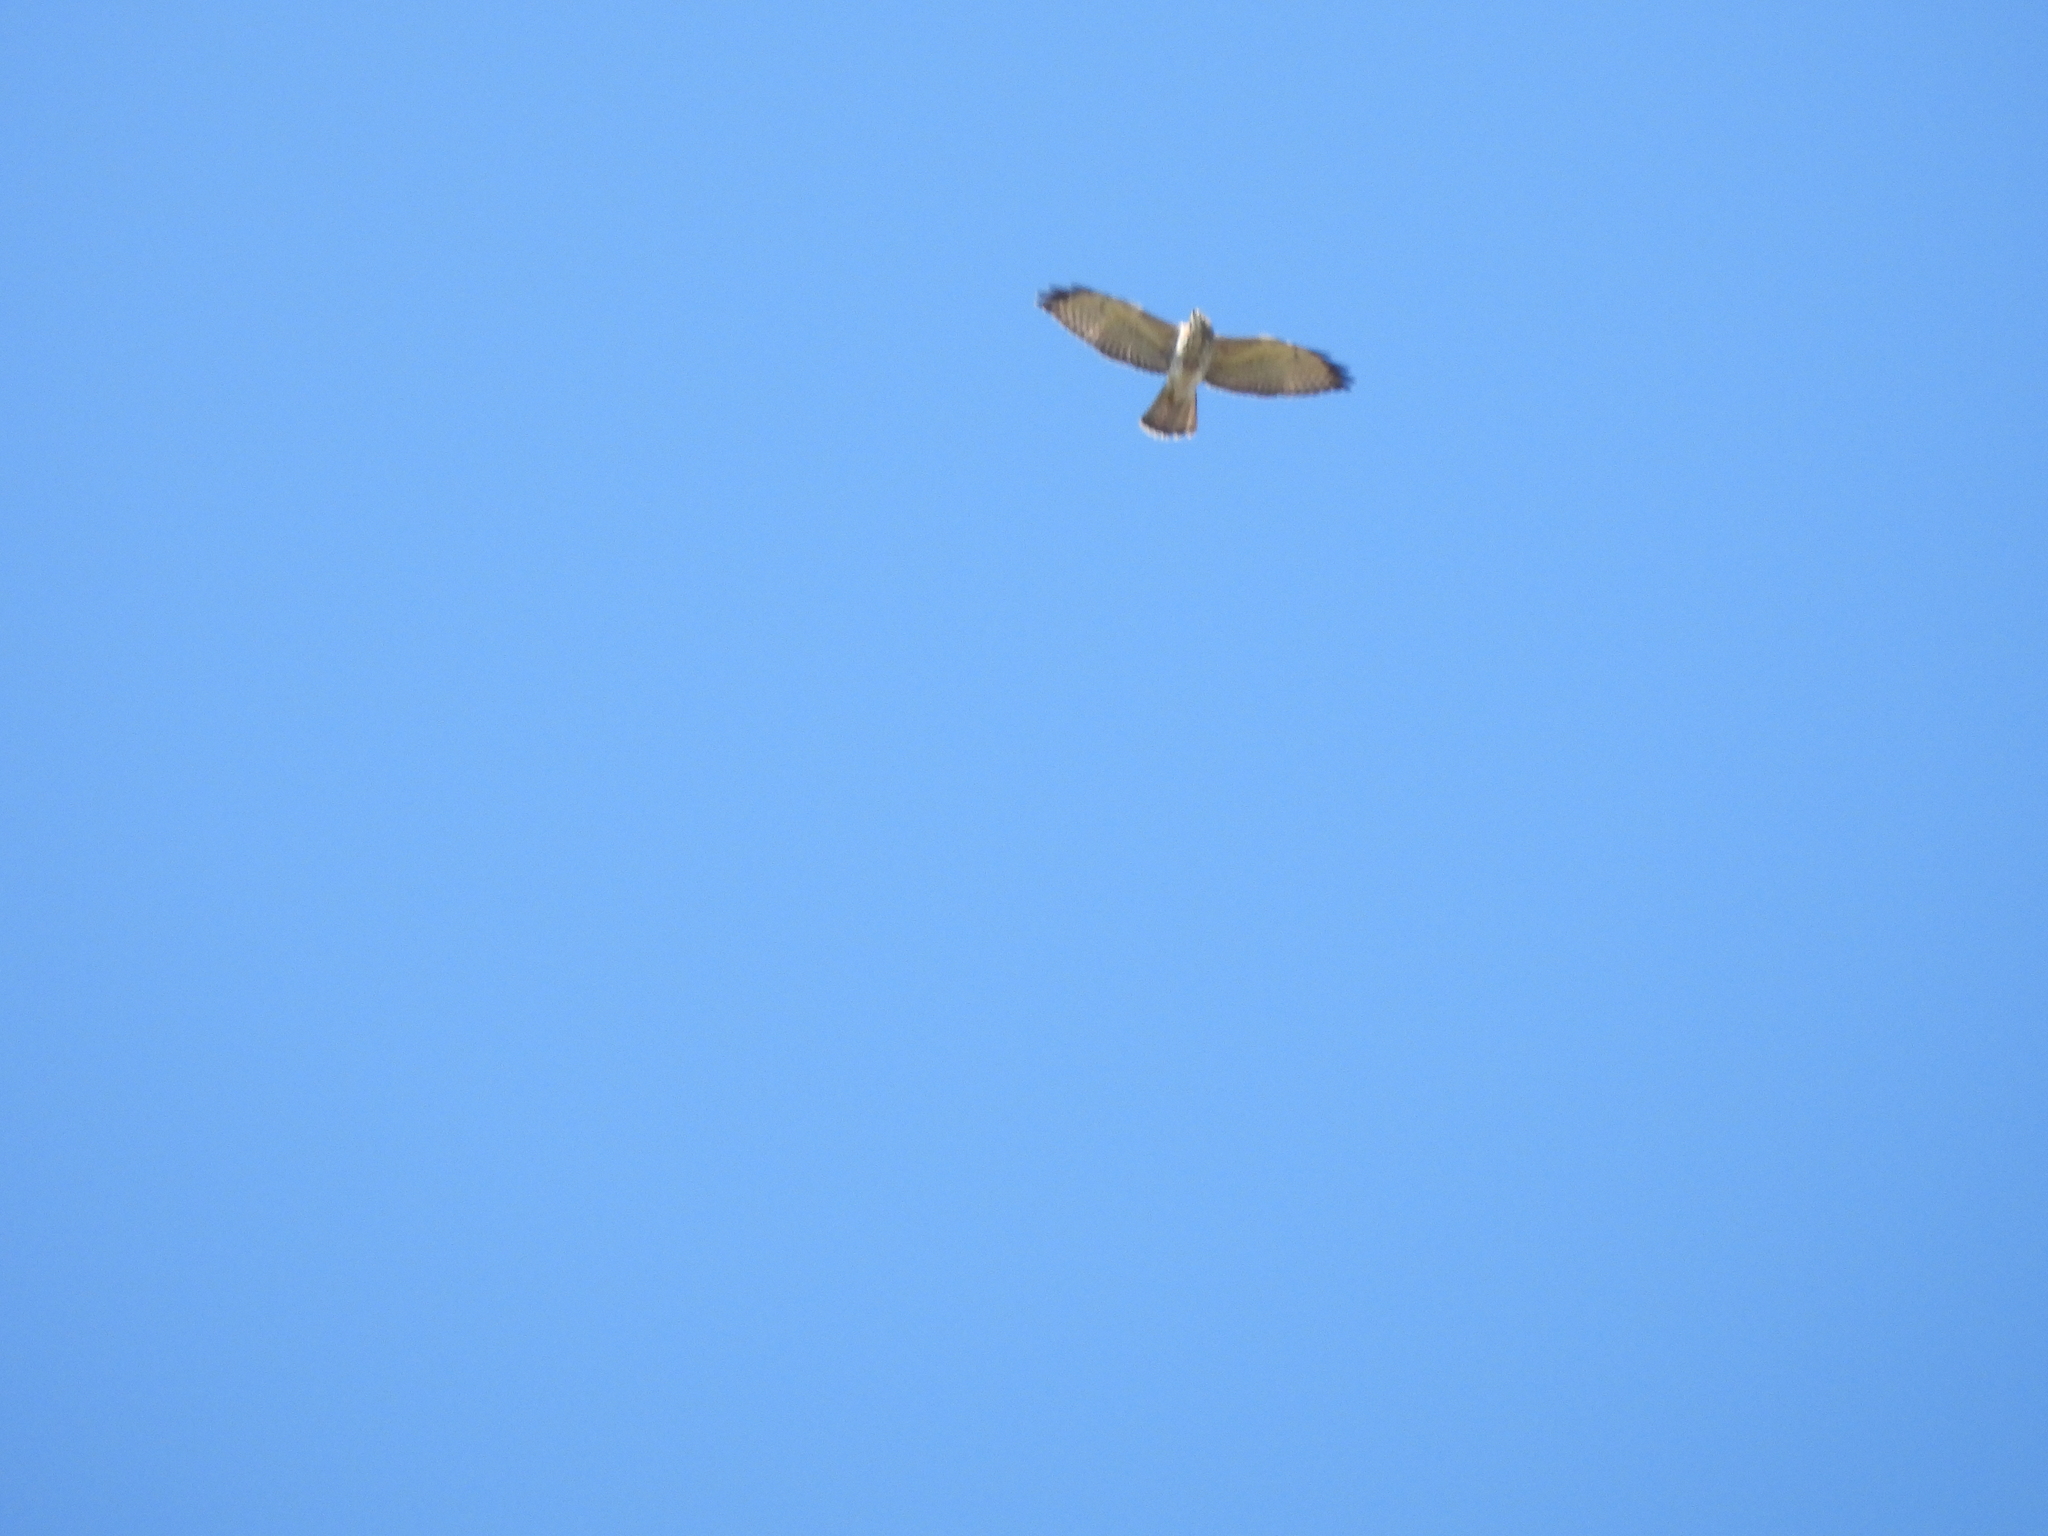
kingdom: Animalia
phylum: Chordata
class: Aves
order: Accipitriformes
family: Accipitridae
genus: Buteo
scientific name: Buteo platypterus
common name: Broad-winged hawk
